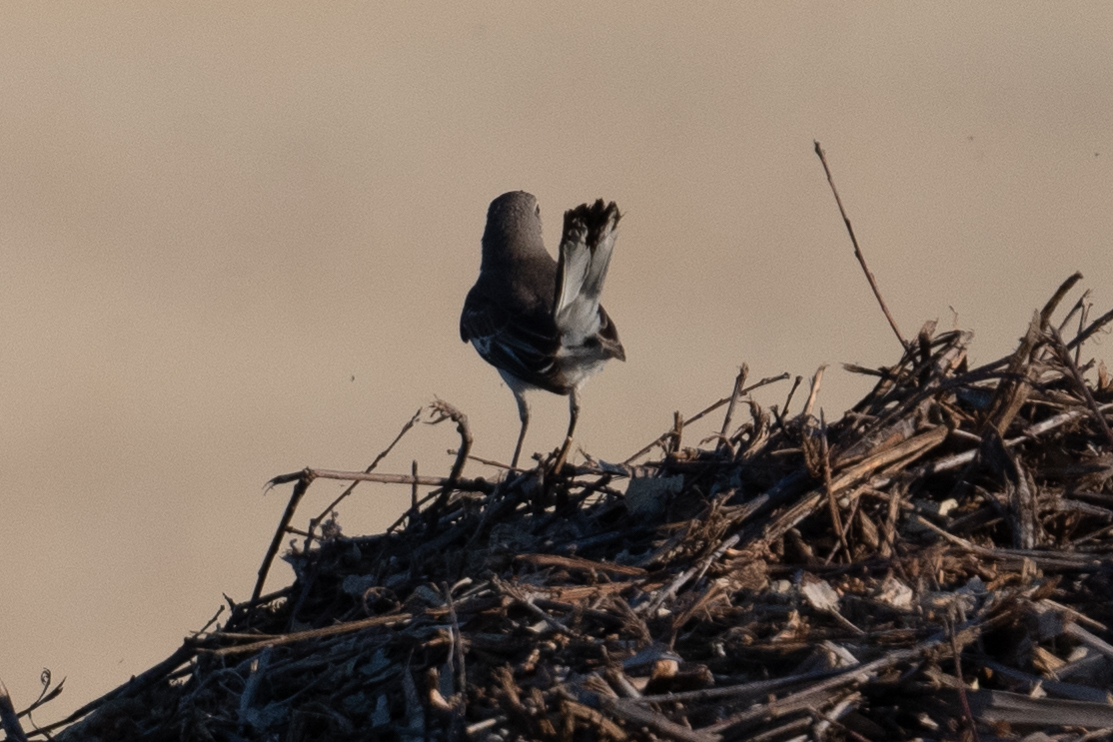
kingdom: Animalia
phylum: Chordata
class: Aves
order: Passeriformes
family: Mimidae
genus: Mimus
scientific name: Mimus polyglottos
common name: Northern mockingbird
